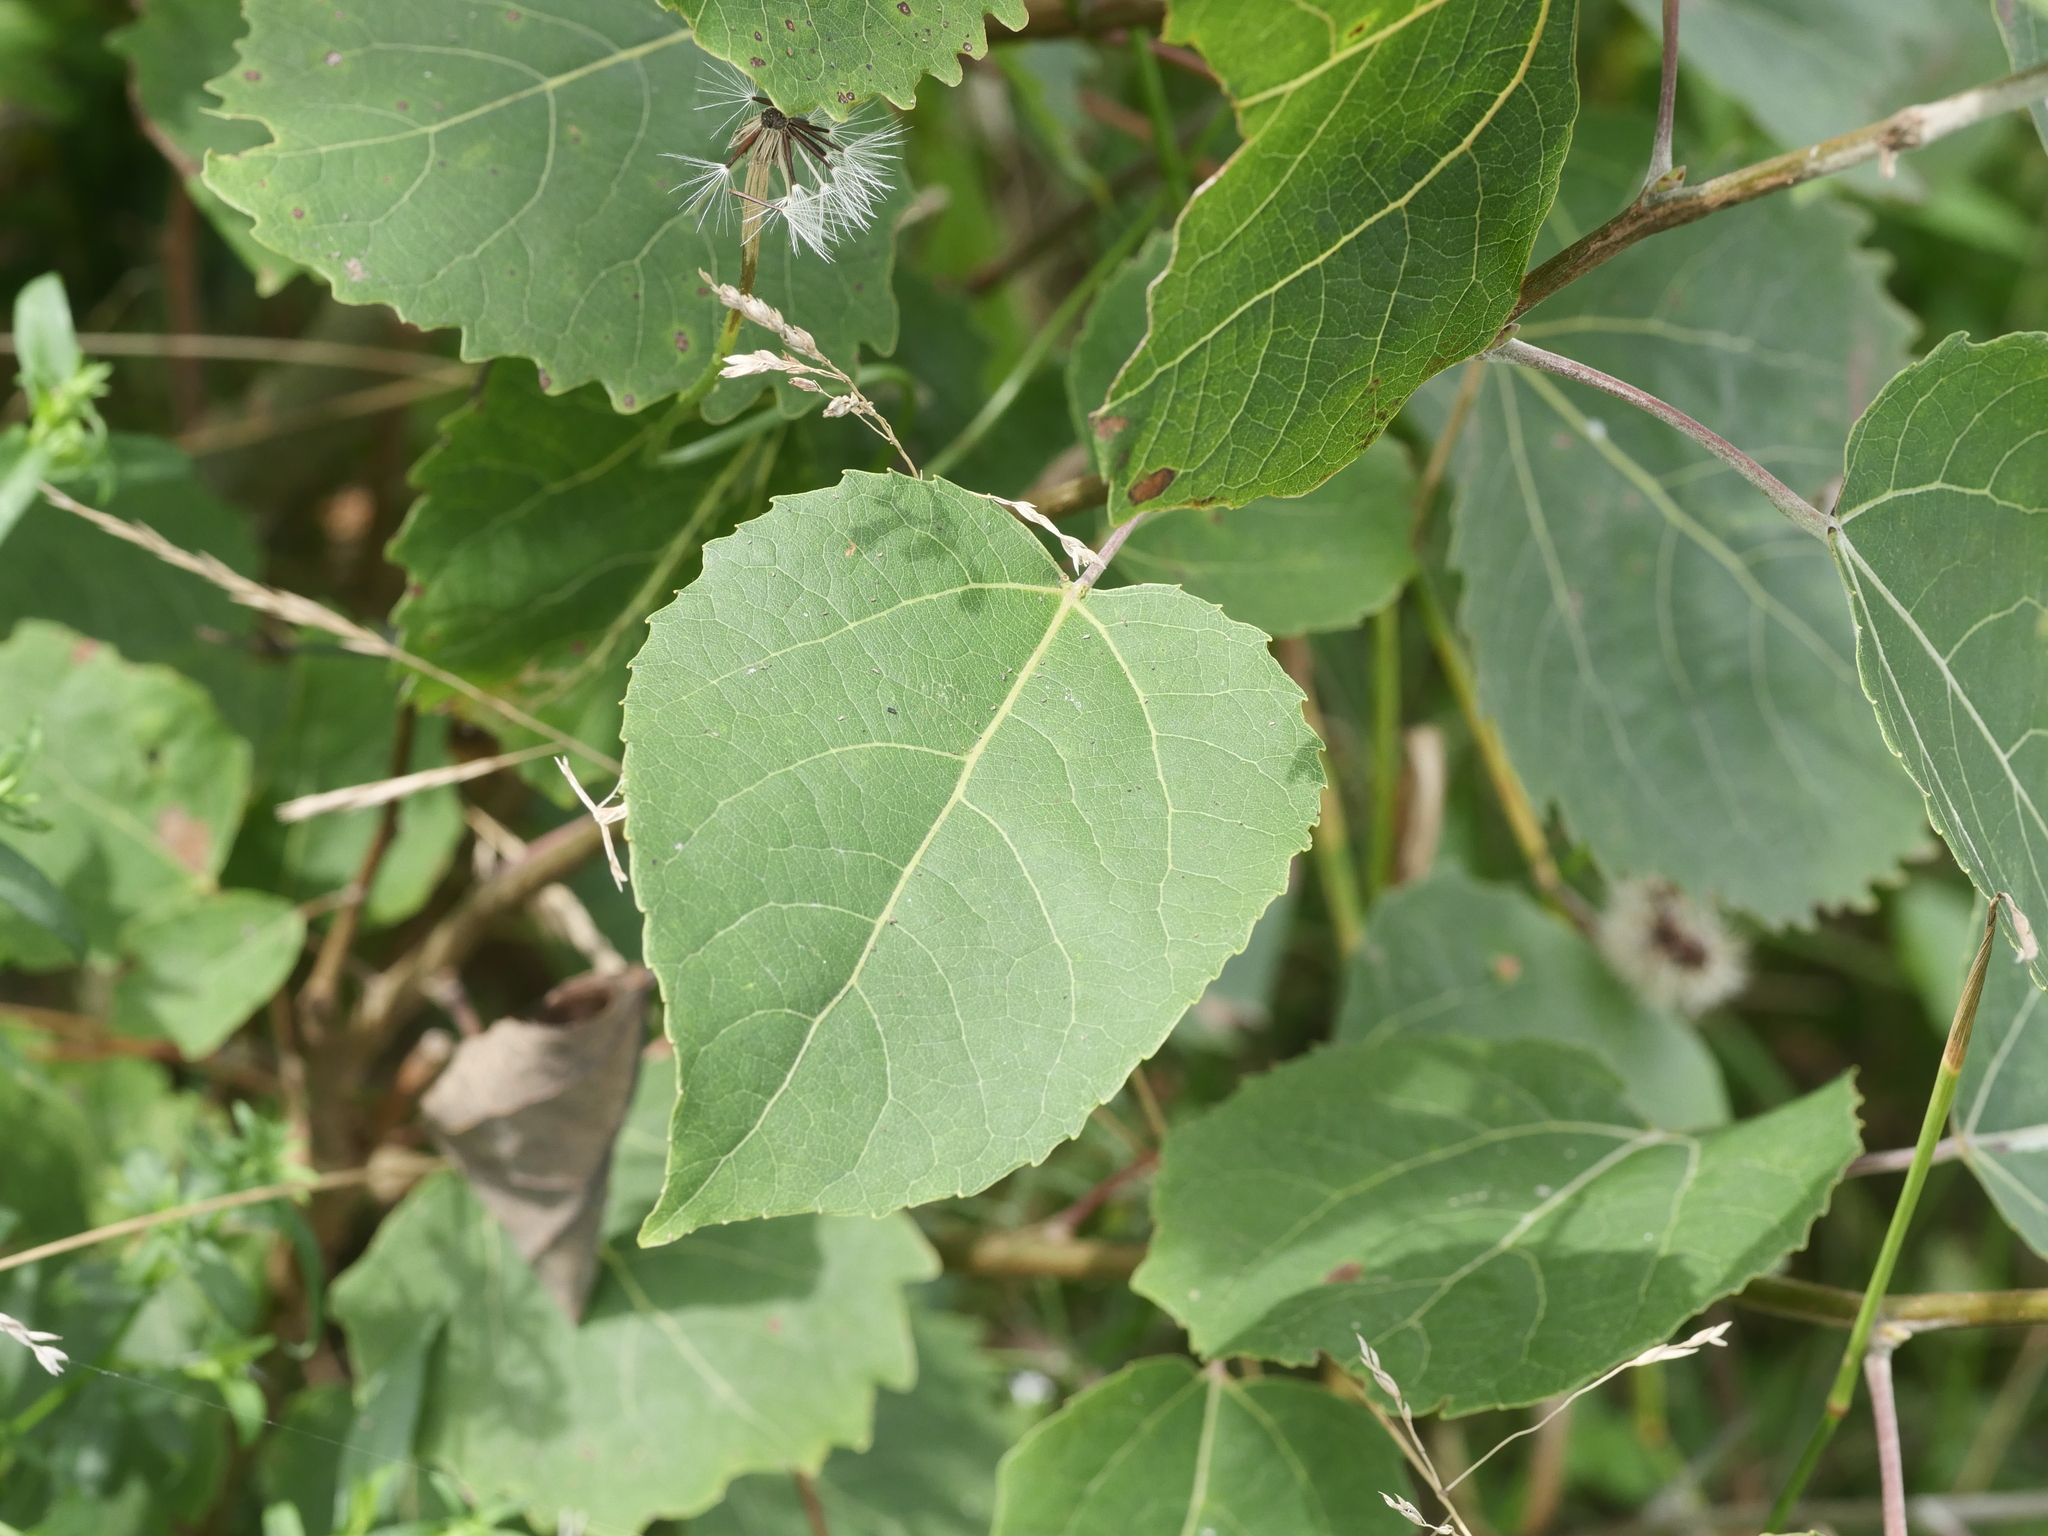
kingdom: Plantae
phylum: Tracheophyta
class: Magnoliopsida
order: Malpighiales
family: Salicaceae
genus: Populus
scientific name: Populus tremuloides
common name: Quaking aspen
